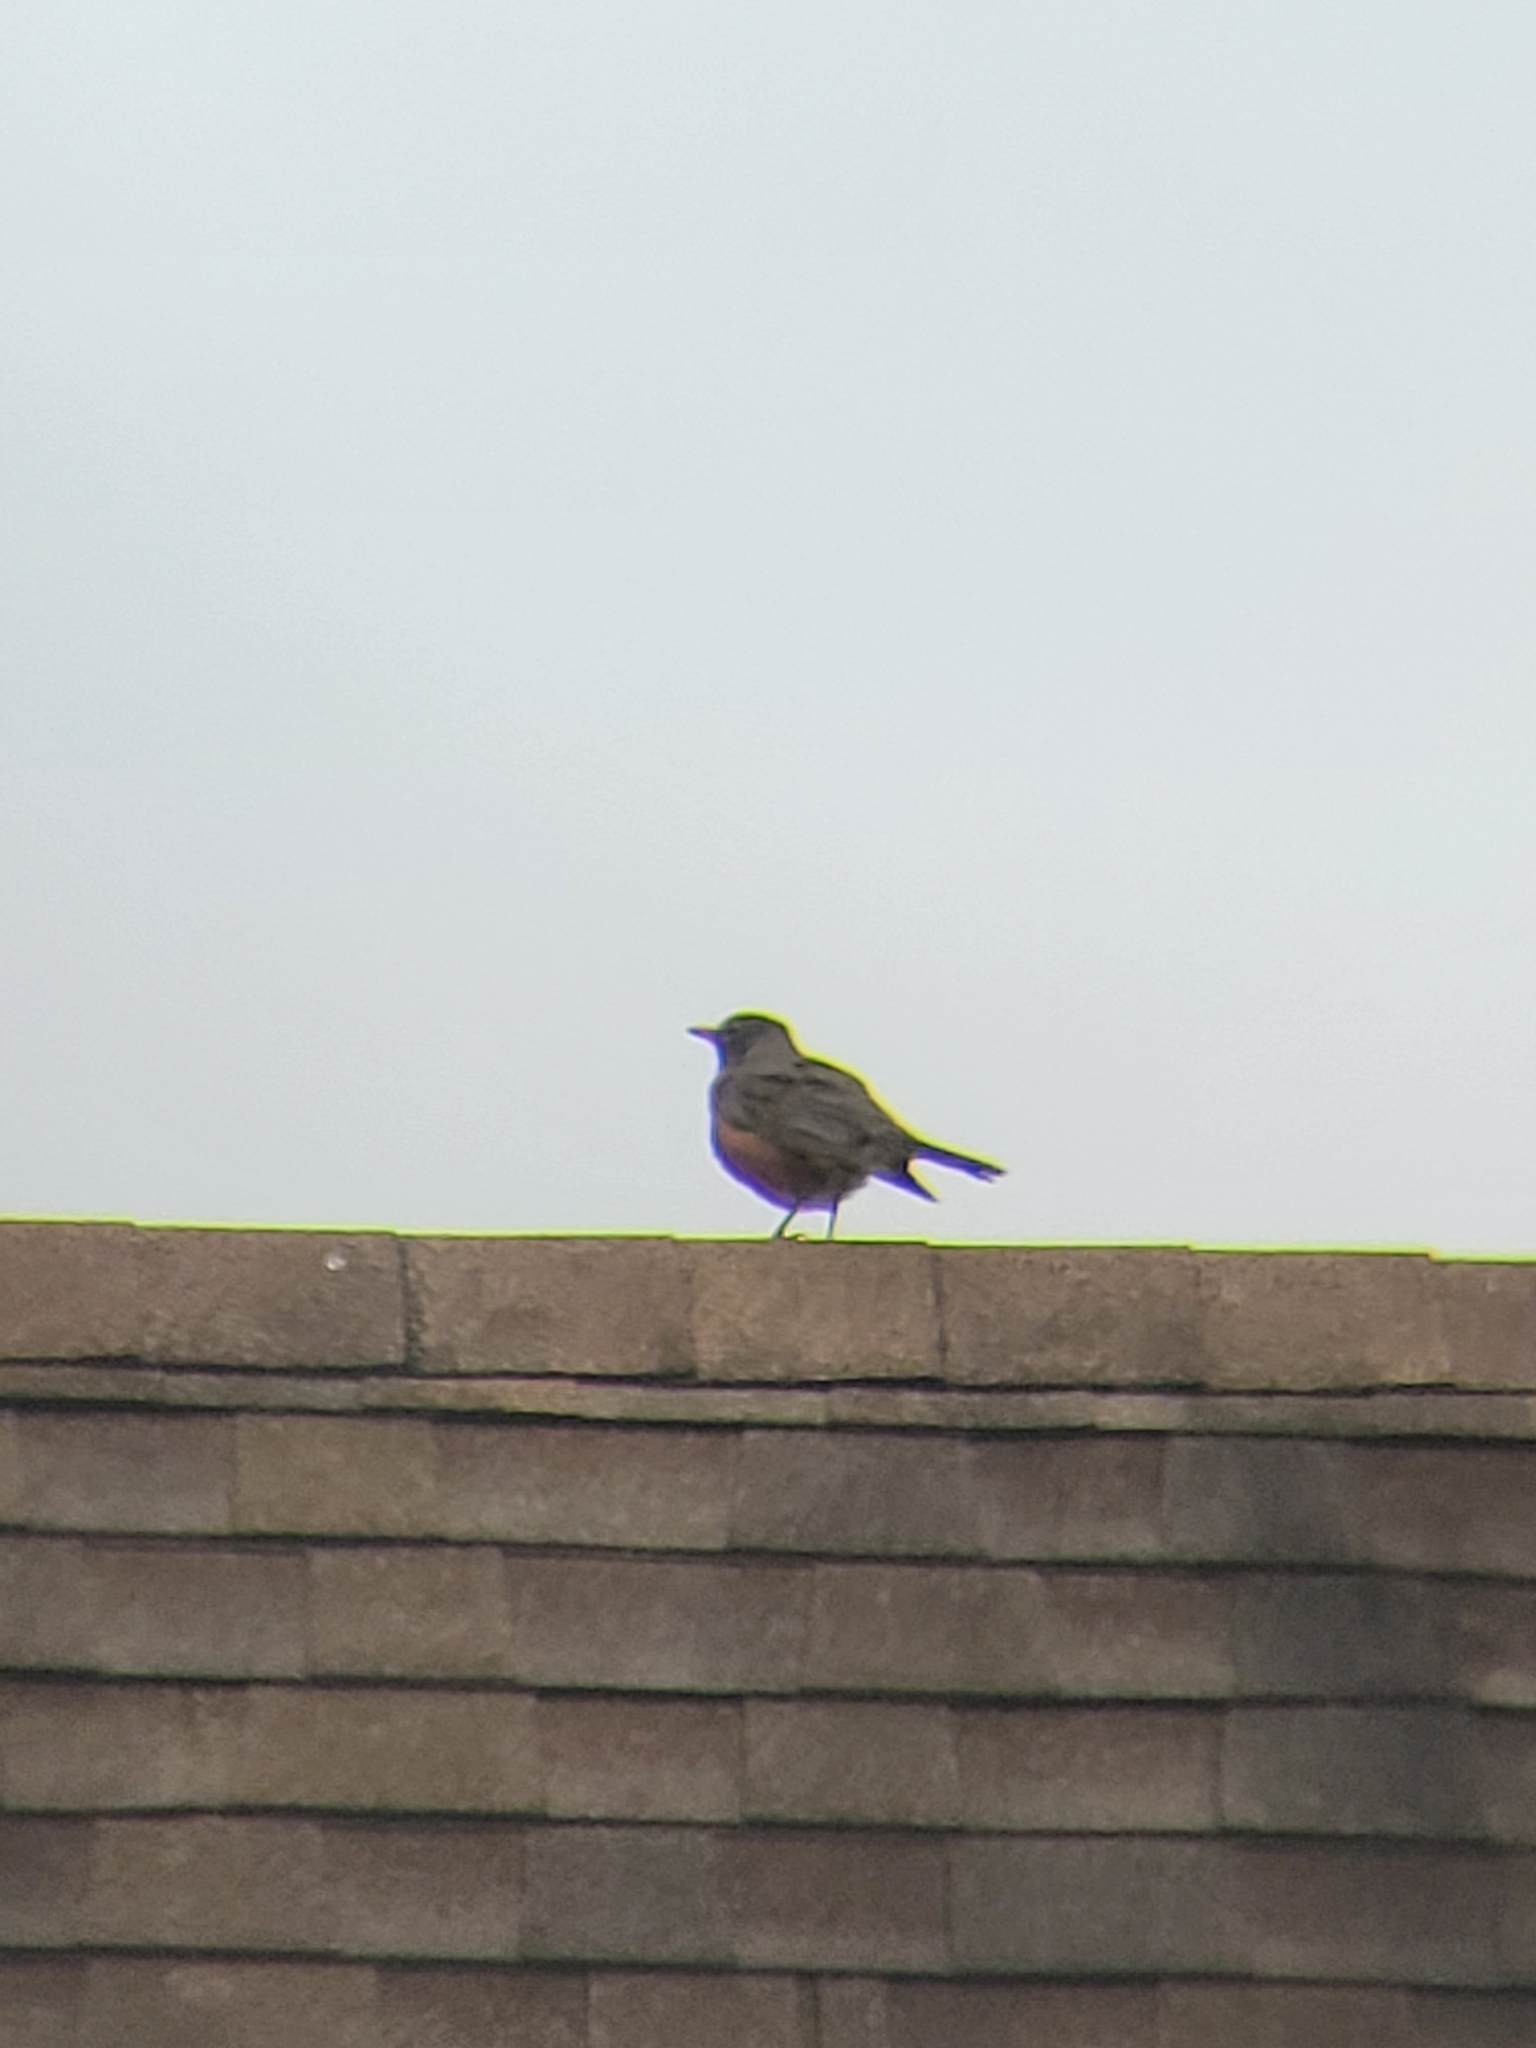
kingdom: Animalia
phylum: Chordata
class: Aves
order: Passeriformes
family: Turdidae
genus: Turdus
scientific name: Turdus migratorius
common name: American robin
